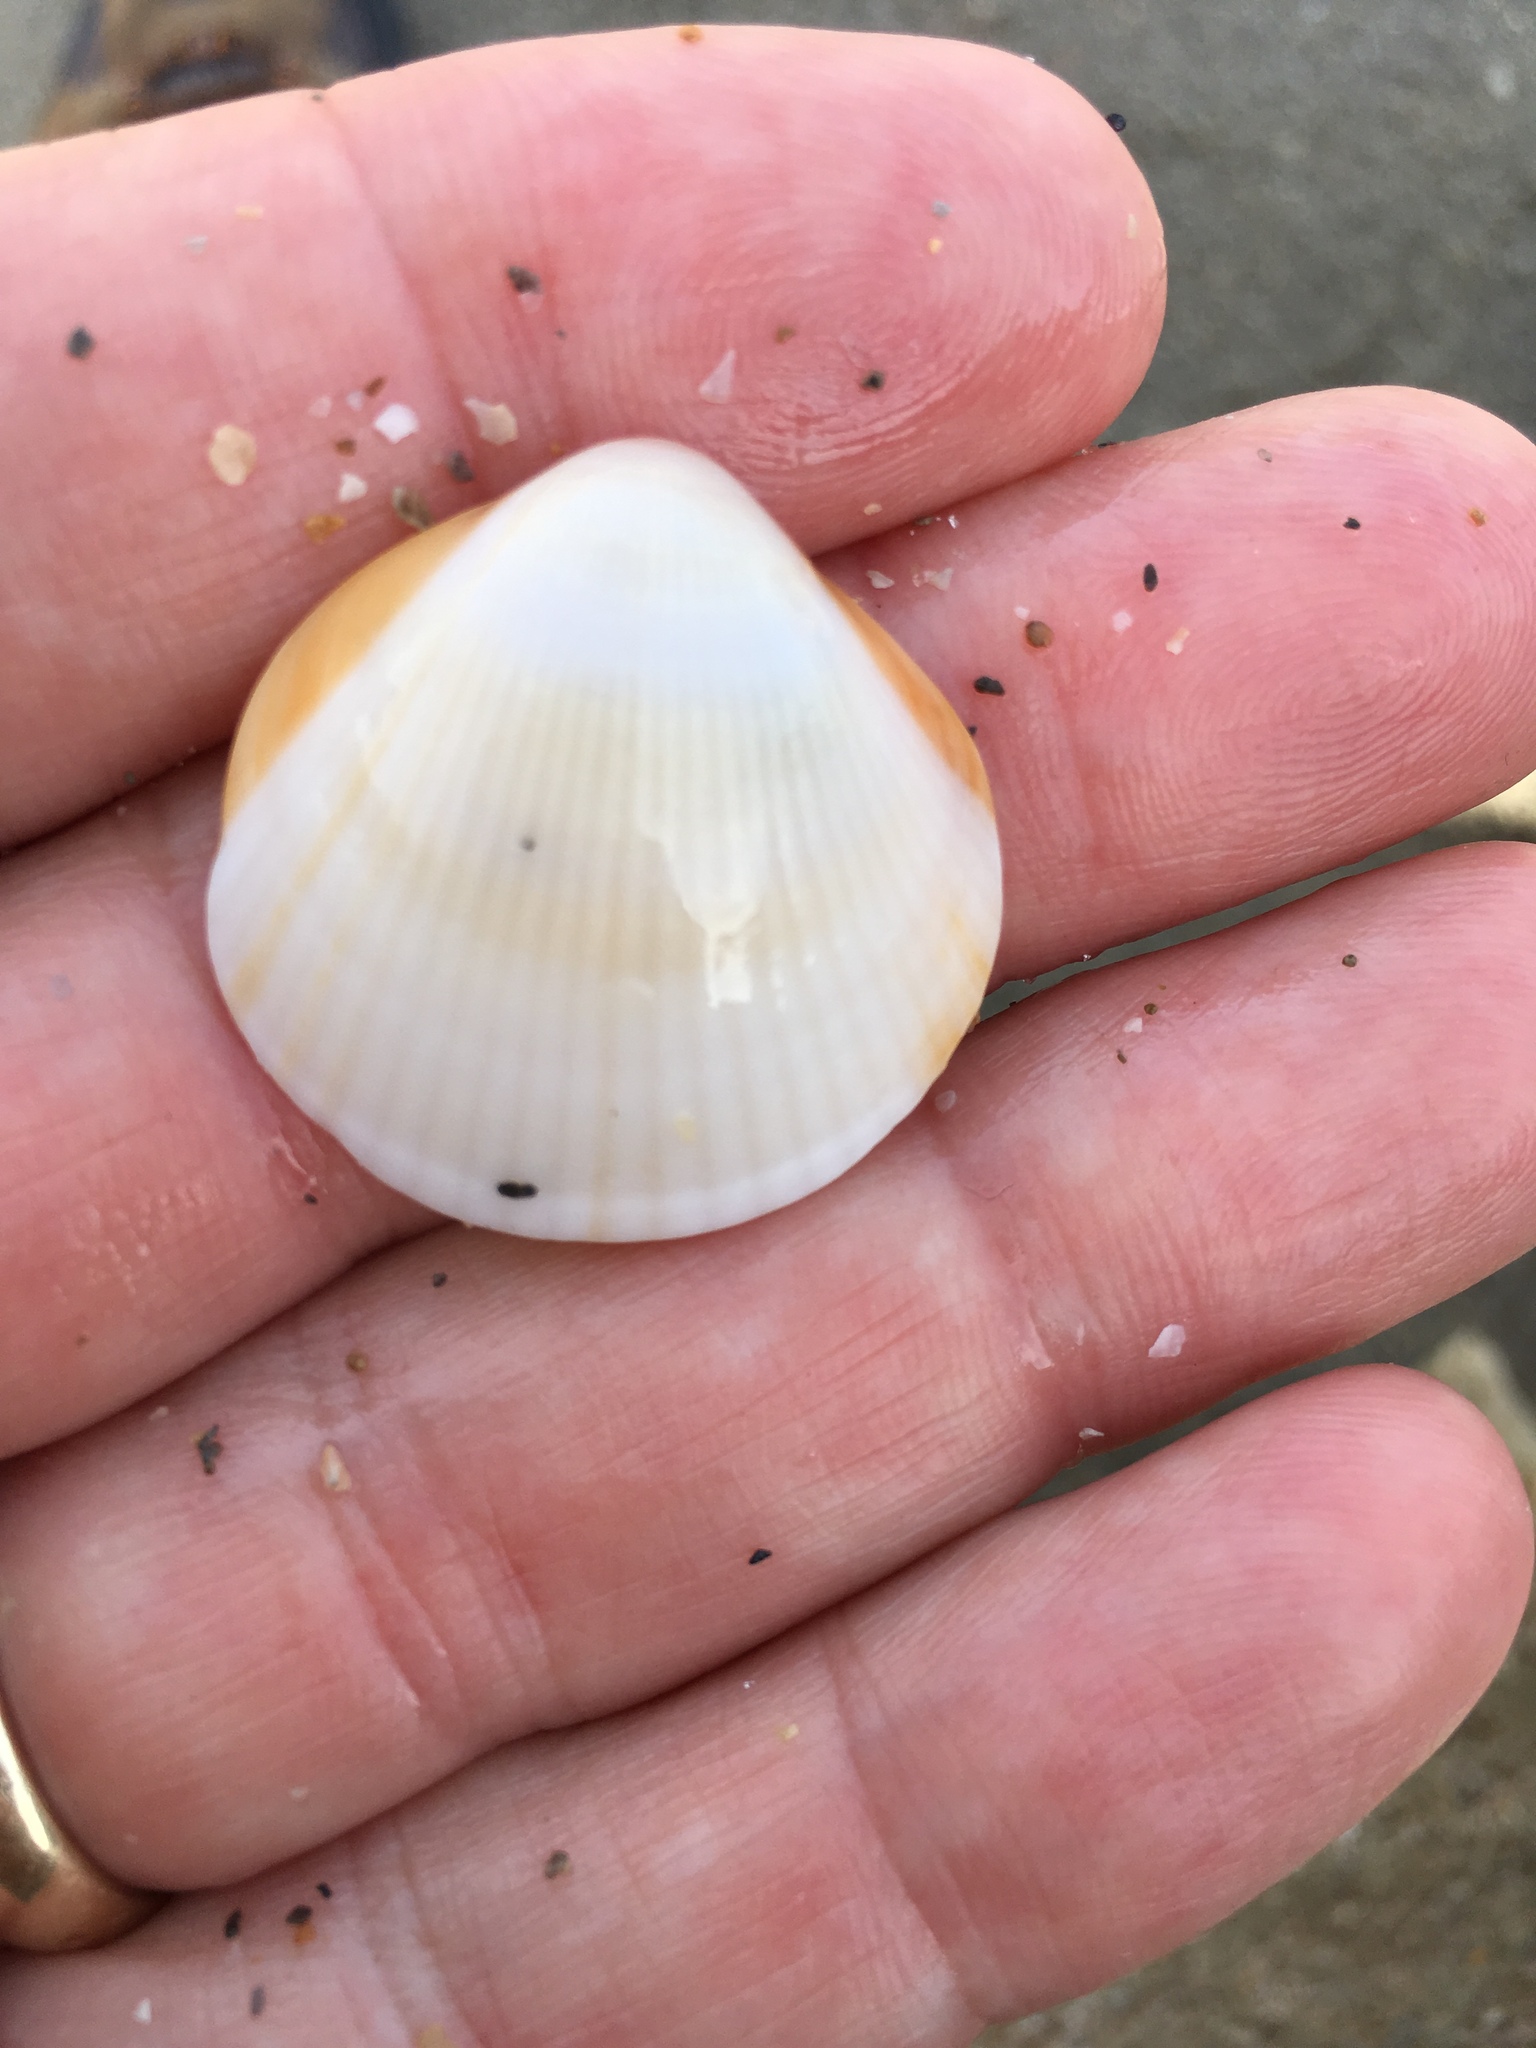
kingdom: Animalia
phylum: Mollusca
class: Bivalvia
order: Arcida
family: Glycymerididae
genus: Glycymeris
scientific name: Glycymeris spectralis
